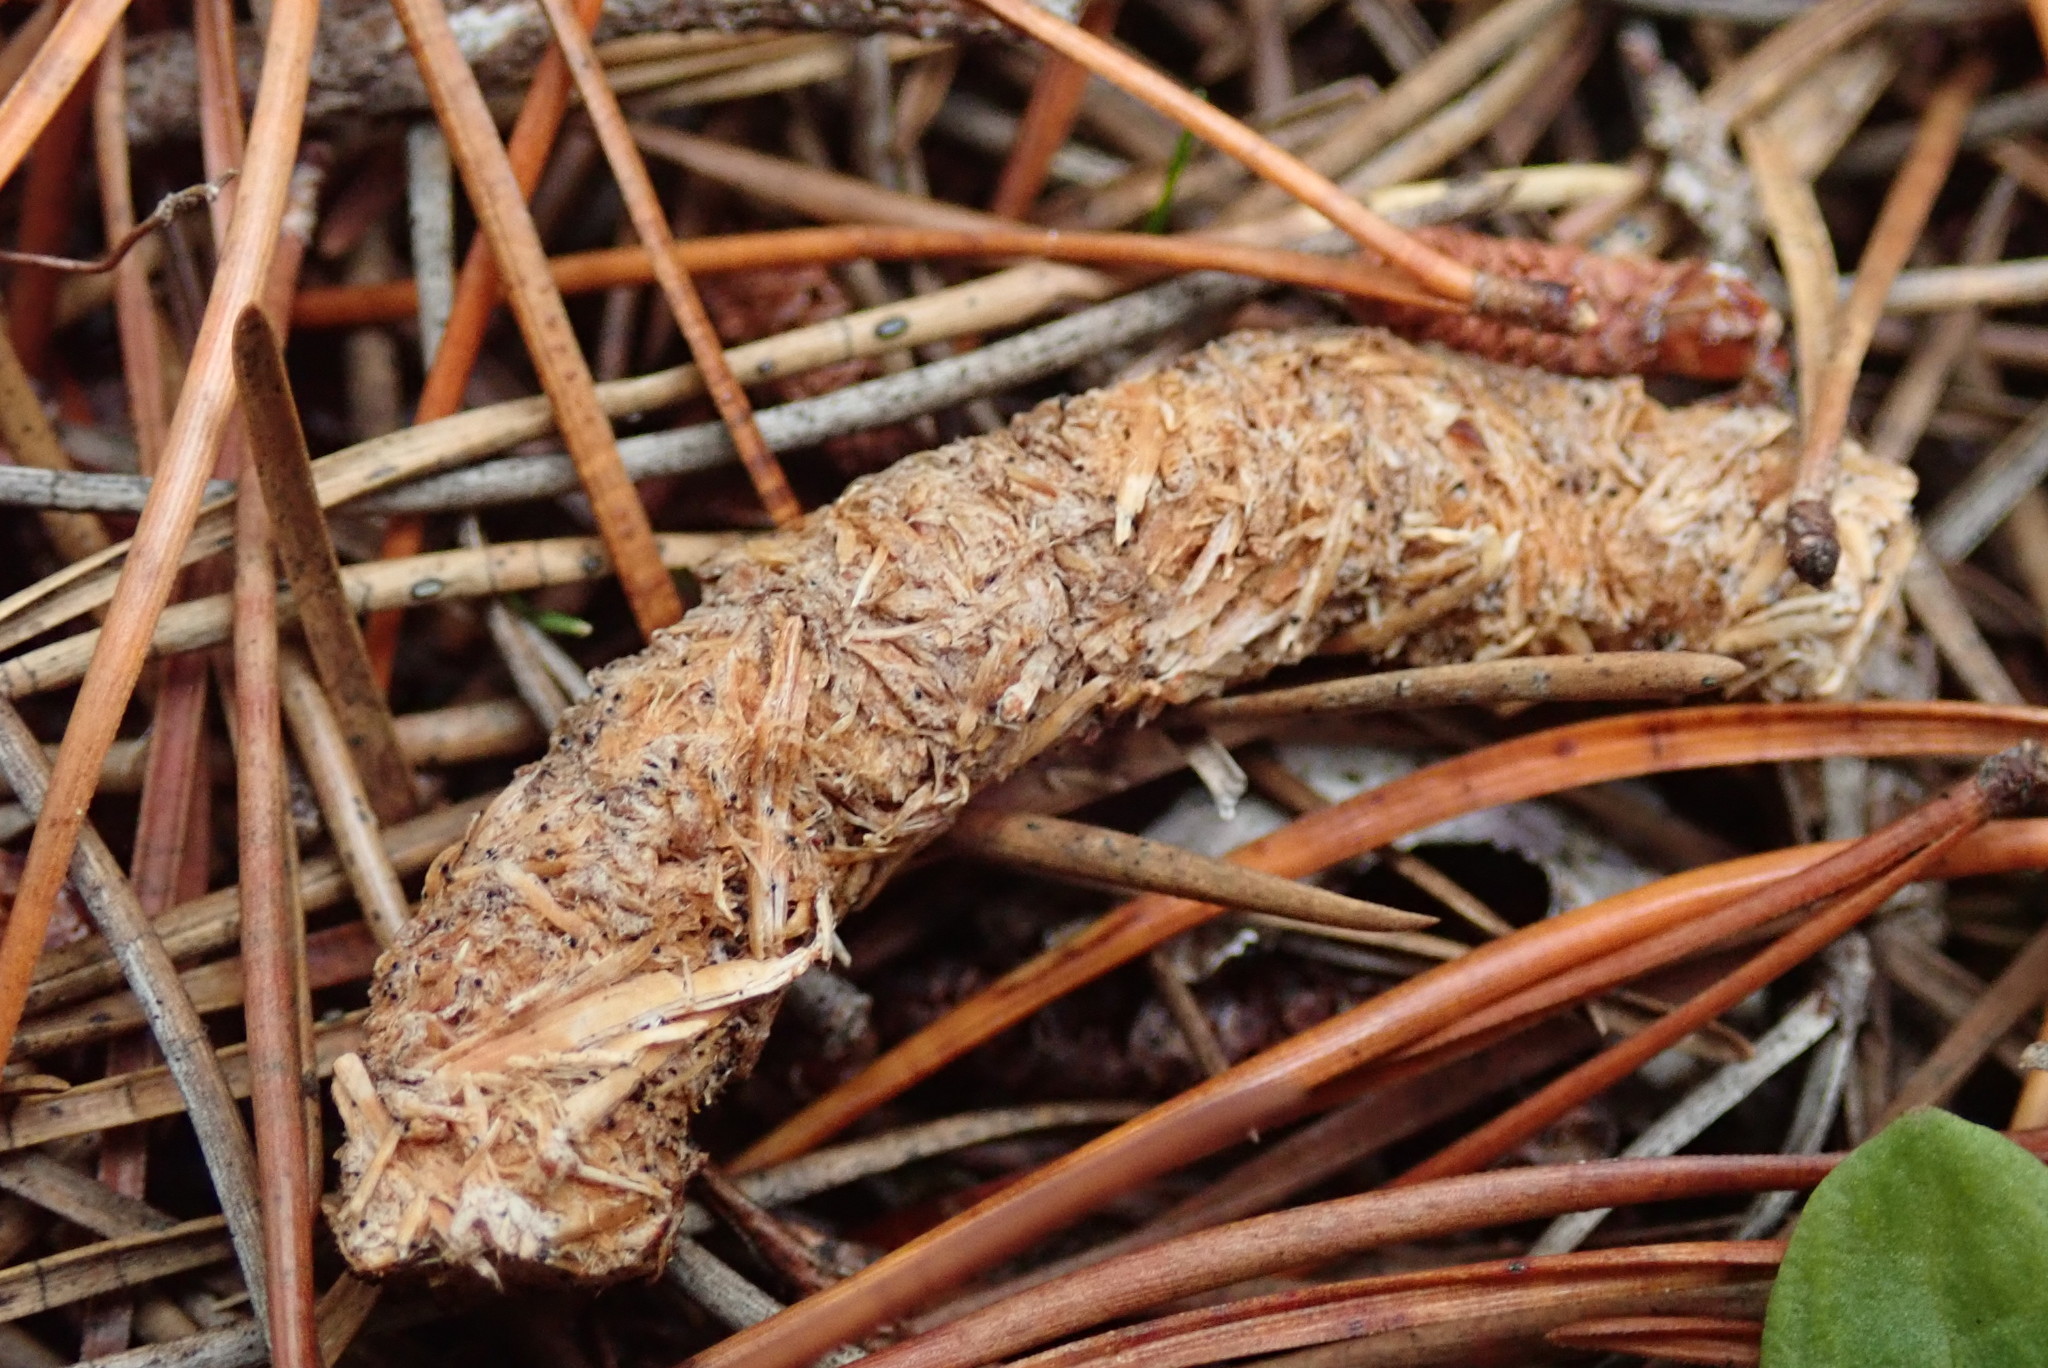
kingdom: Animalia
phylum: Chordata
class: Aves
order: Galliformes
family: Phasianidae
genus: Bonasa
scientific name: Bonasa umbellus
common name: Ruffed grouse
